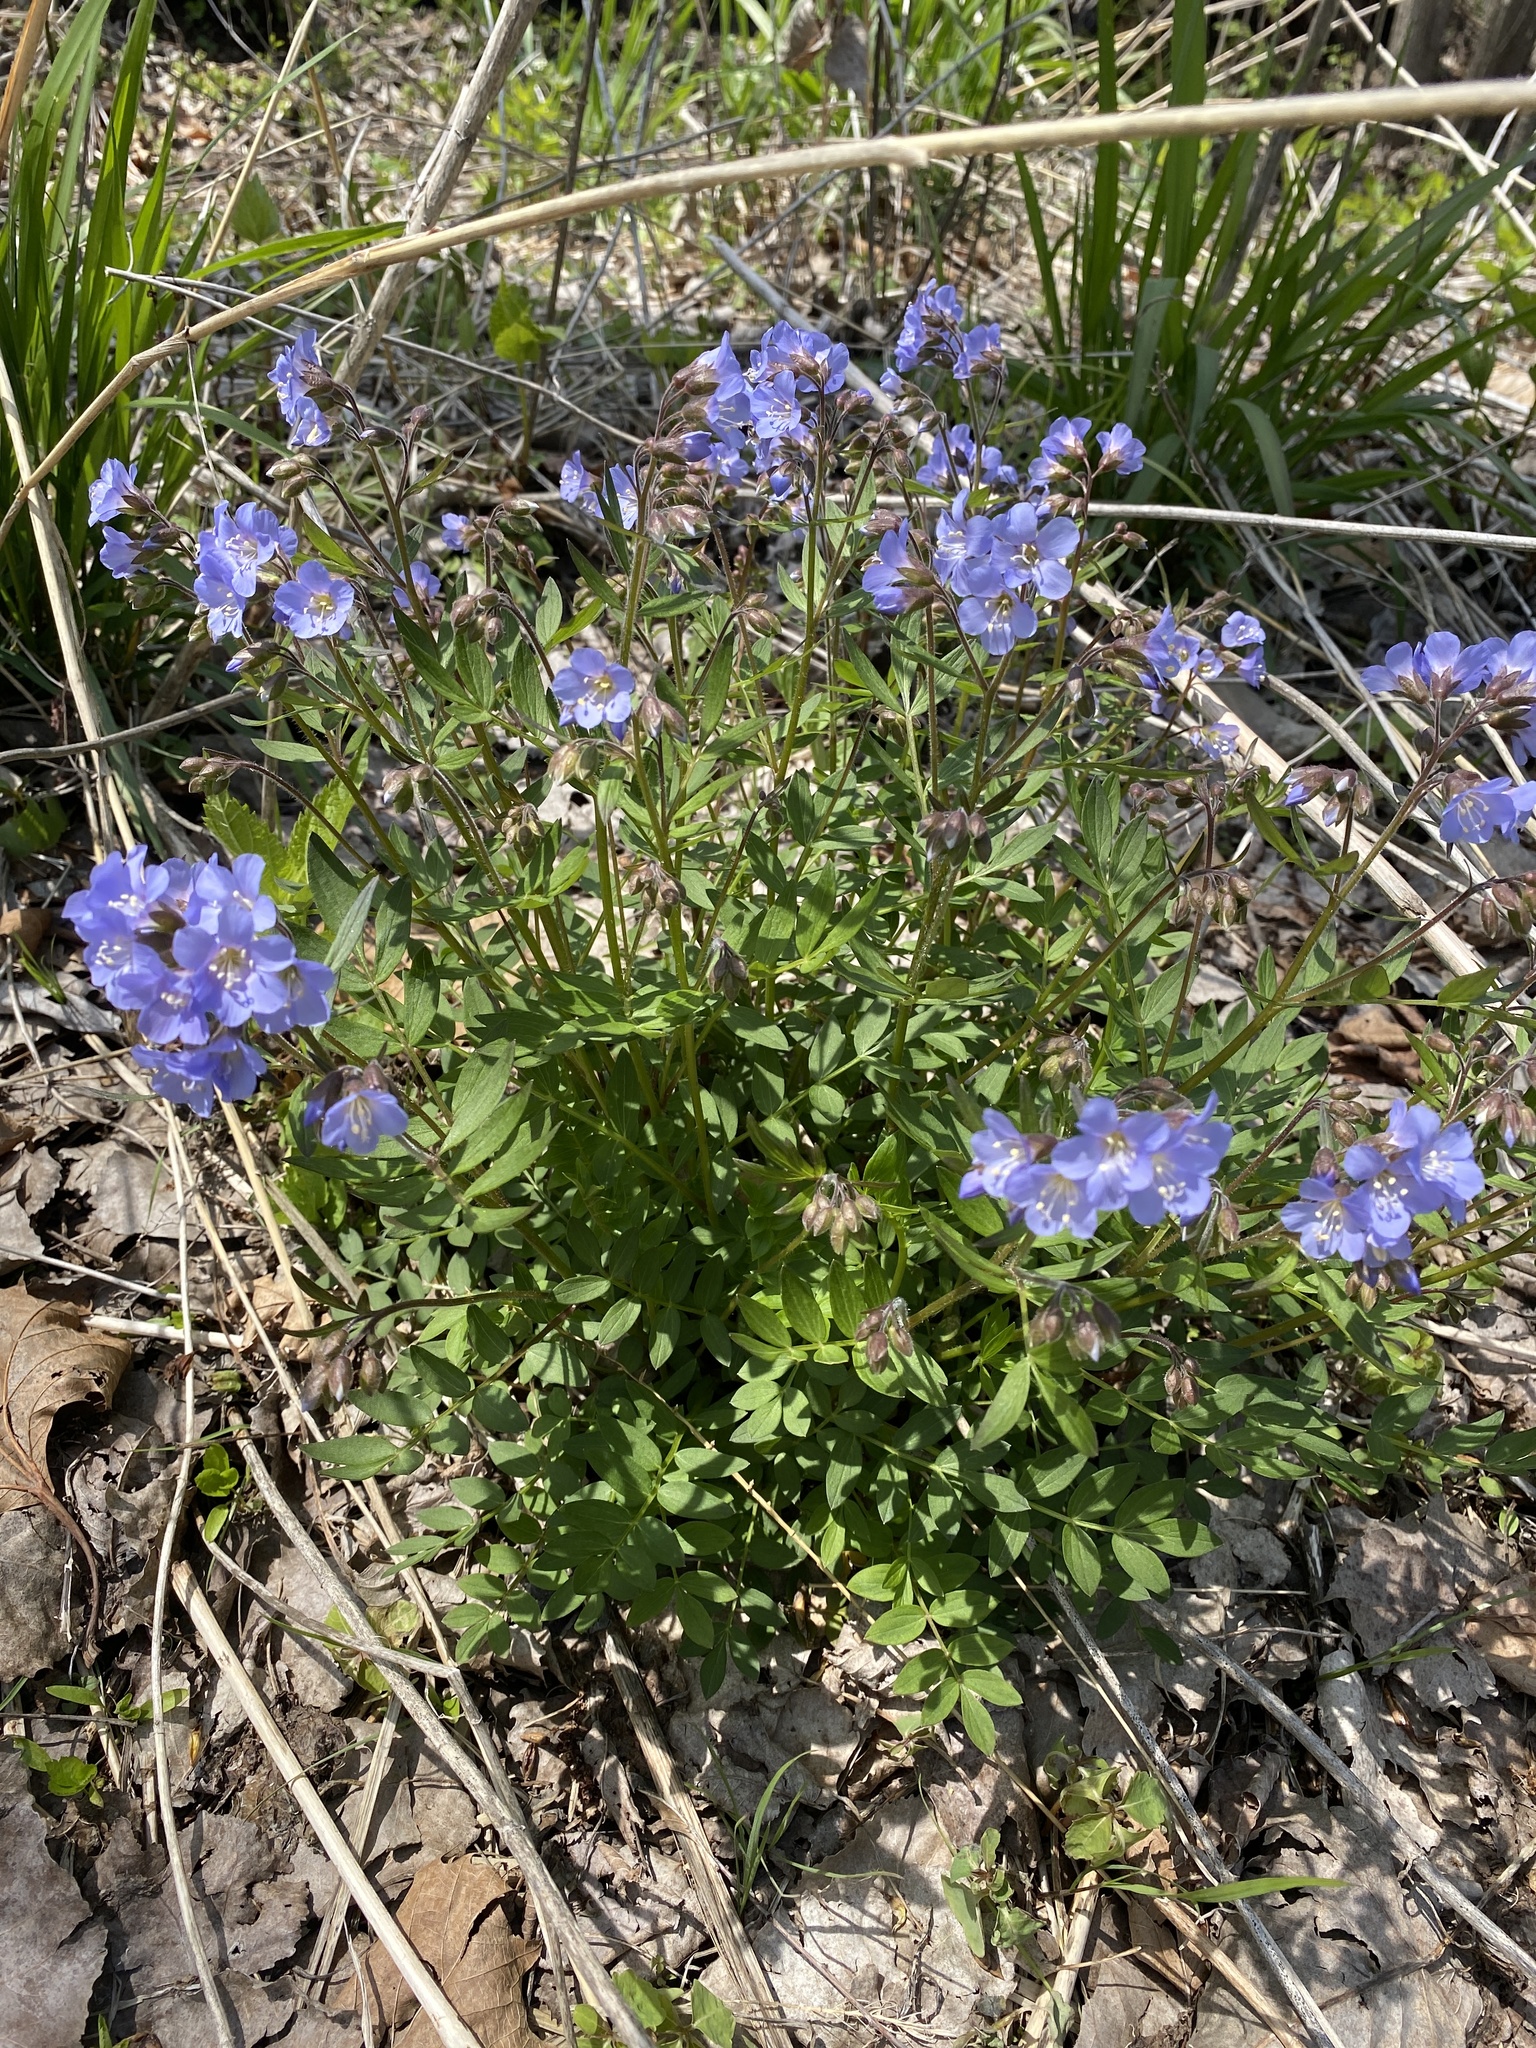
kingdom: Plantae
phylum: Tracheophyta
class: Magnoliopsida
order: Ericales
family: Polemoniaceae
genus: Polemonium
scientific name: Polemonium reptans
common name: Creeping jacob's-ladder
